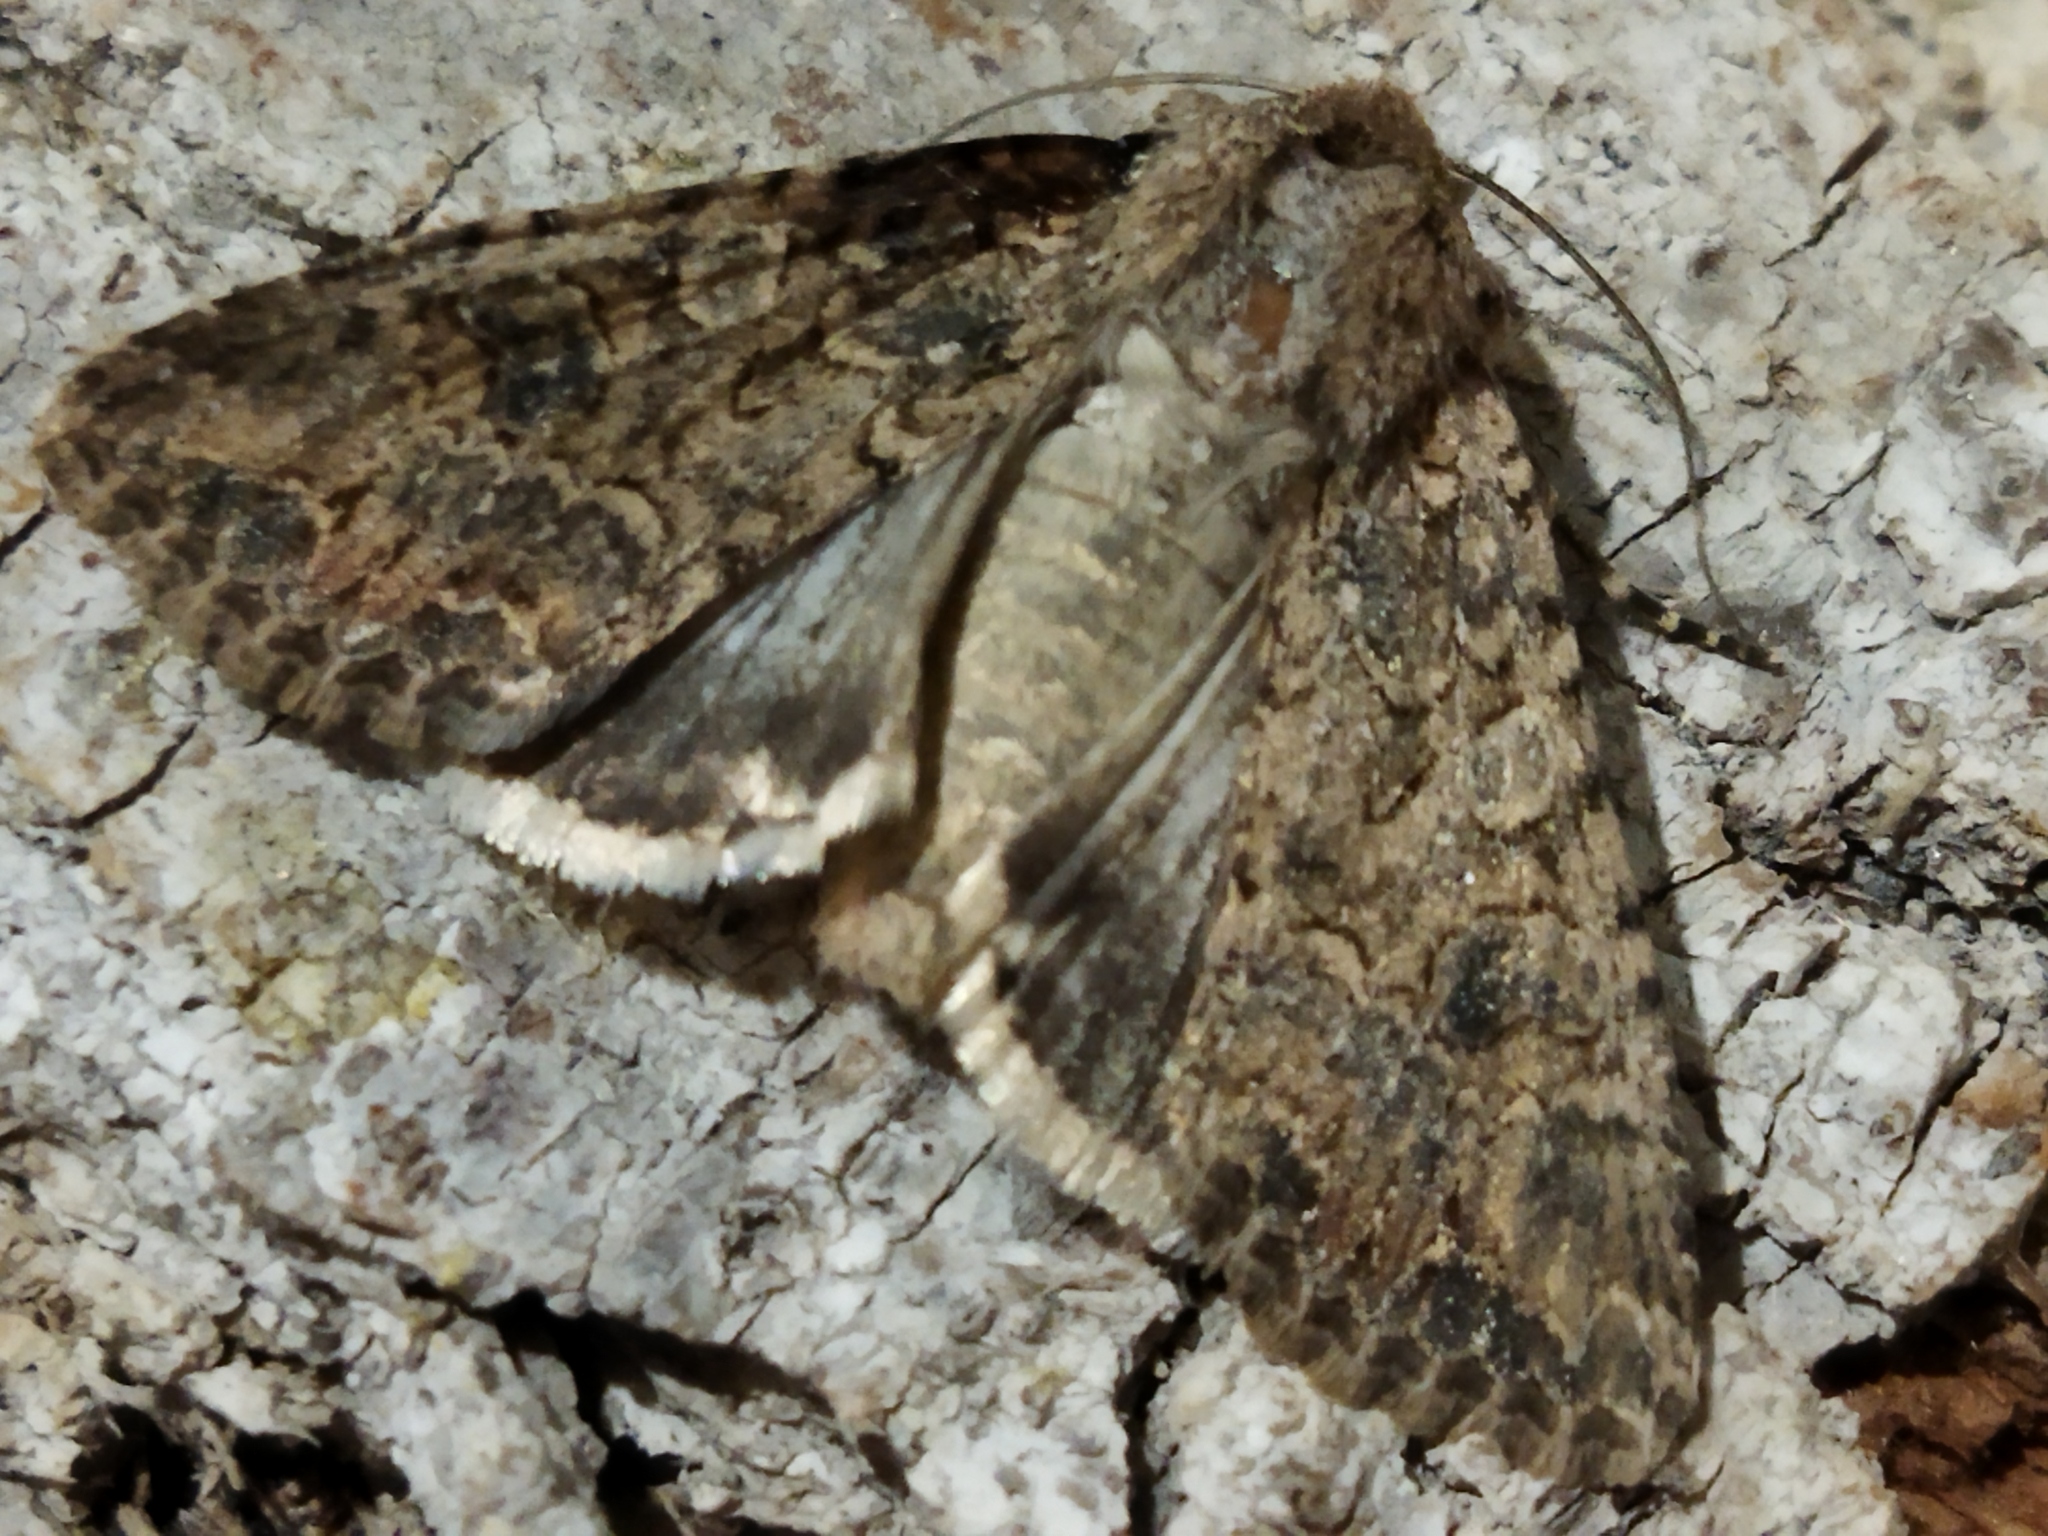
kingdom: Animalia
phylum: Arthropoda
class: Insecta
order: Lepidoptera
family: Noctuidae
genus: Anarta
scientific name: Anarta trifolii
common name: Clover cutworm moth
